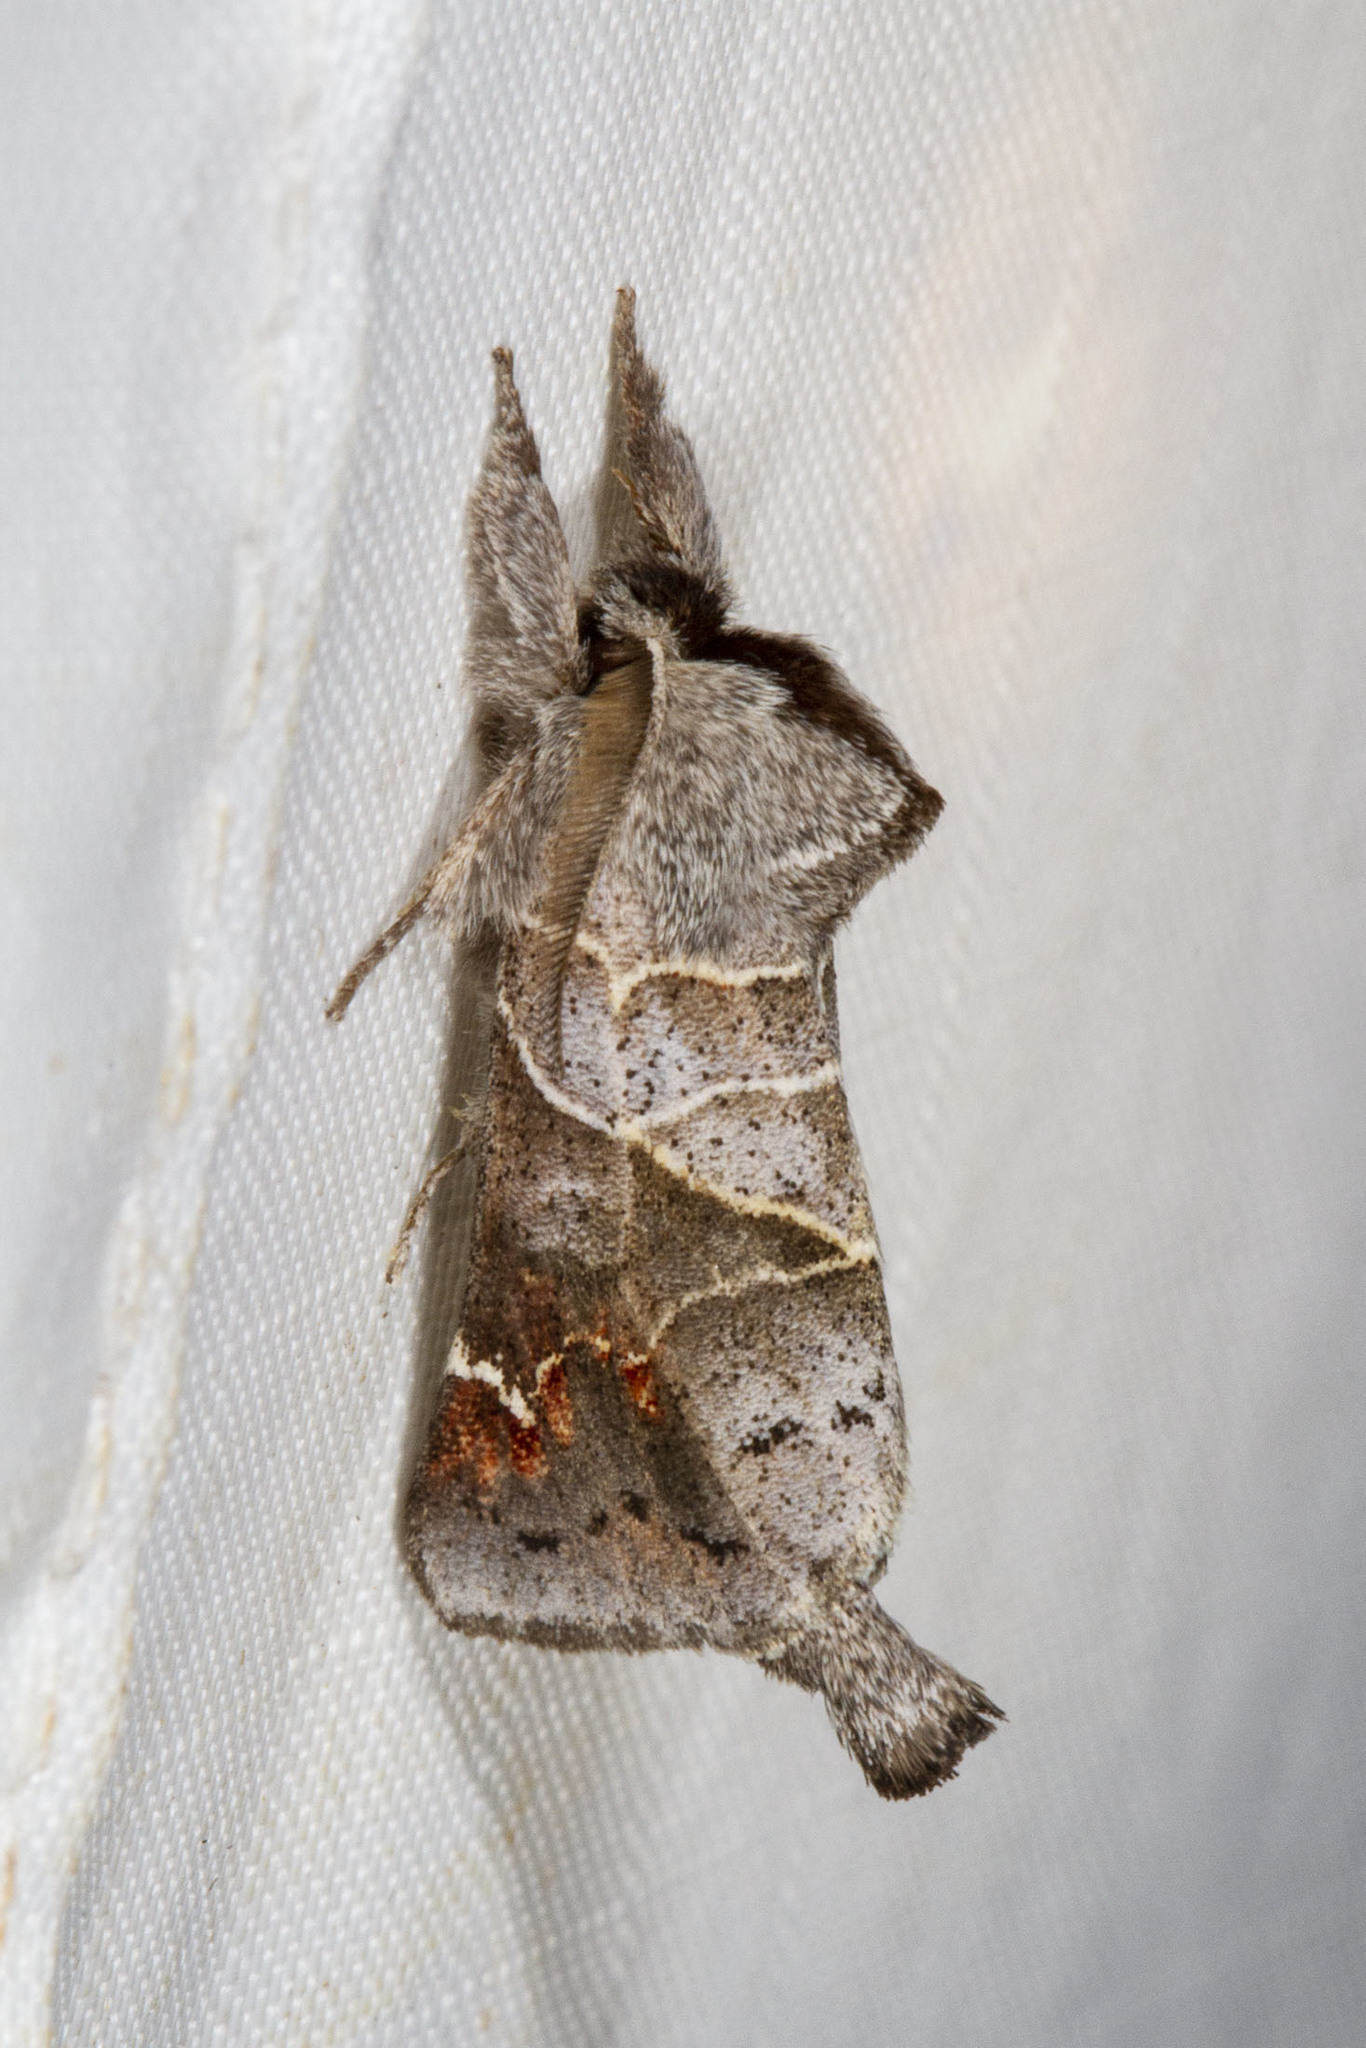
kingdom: Animalia
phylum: Arthropoda
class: Insecta
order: Lepidoptera
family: Notodontidae
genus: Clostera
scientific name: Clostera apicalis
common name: Apical prominent
